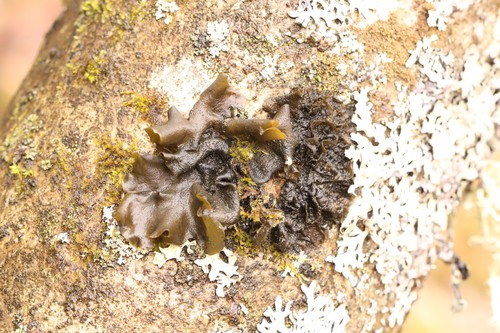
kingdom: Fungi
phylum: Ascomycota
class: Lecanoromycetes
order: Peltigerales
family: Collemataceae
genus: Collema
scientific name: Collema furfuraceum
